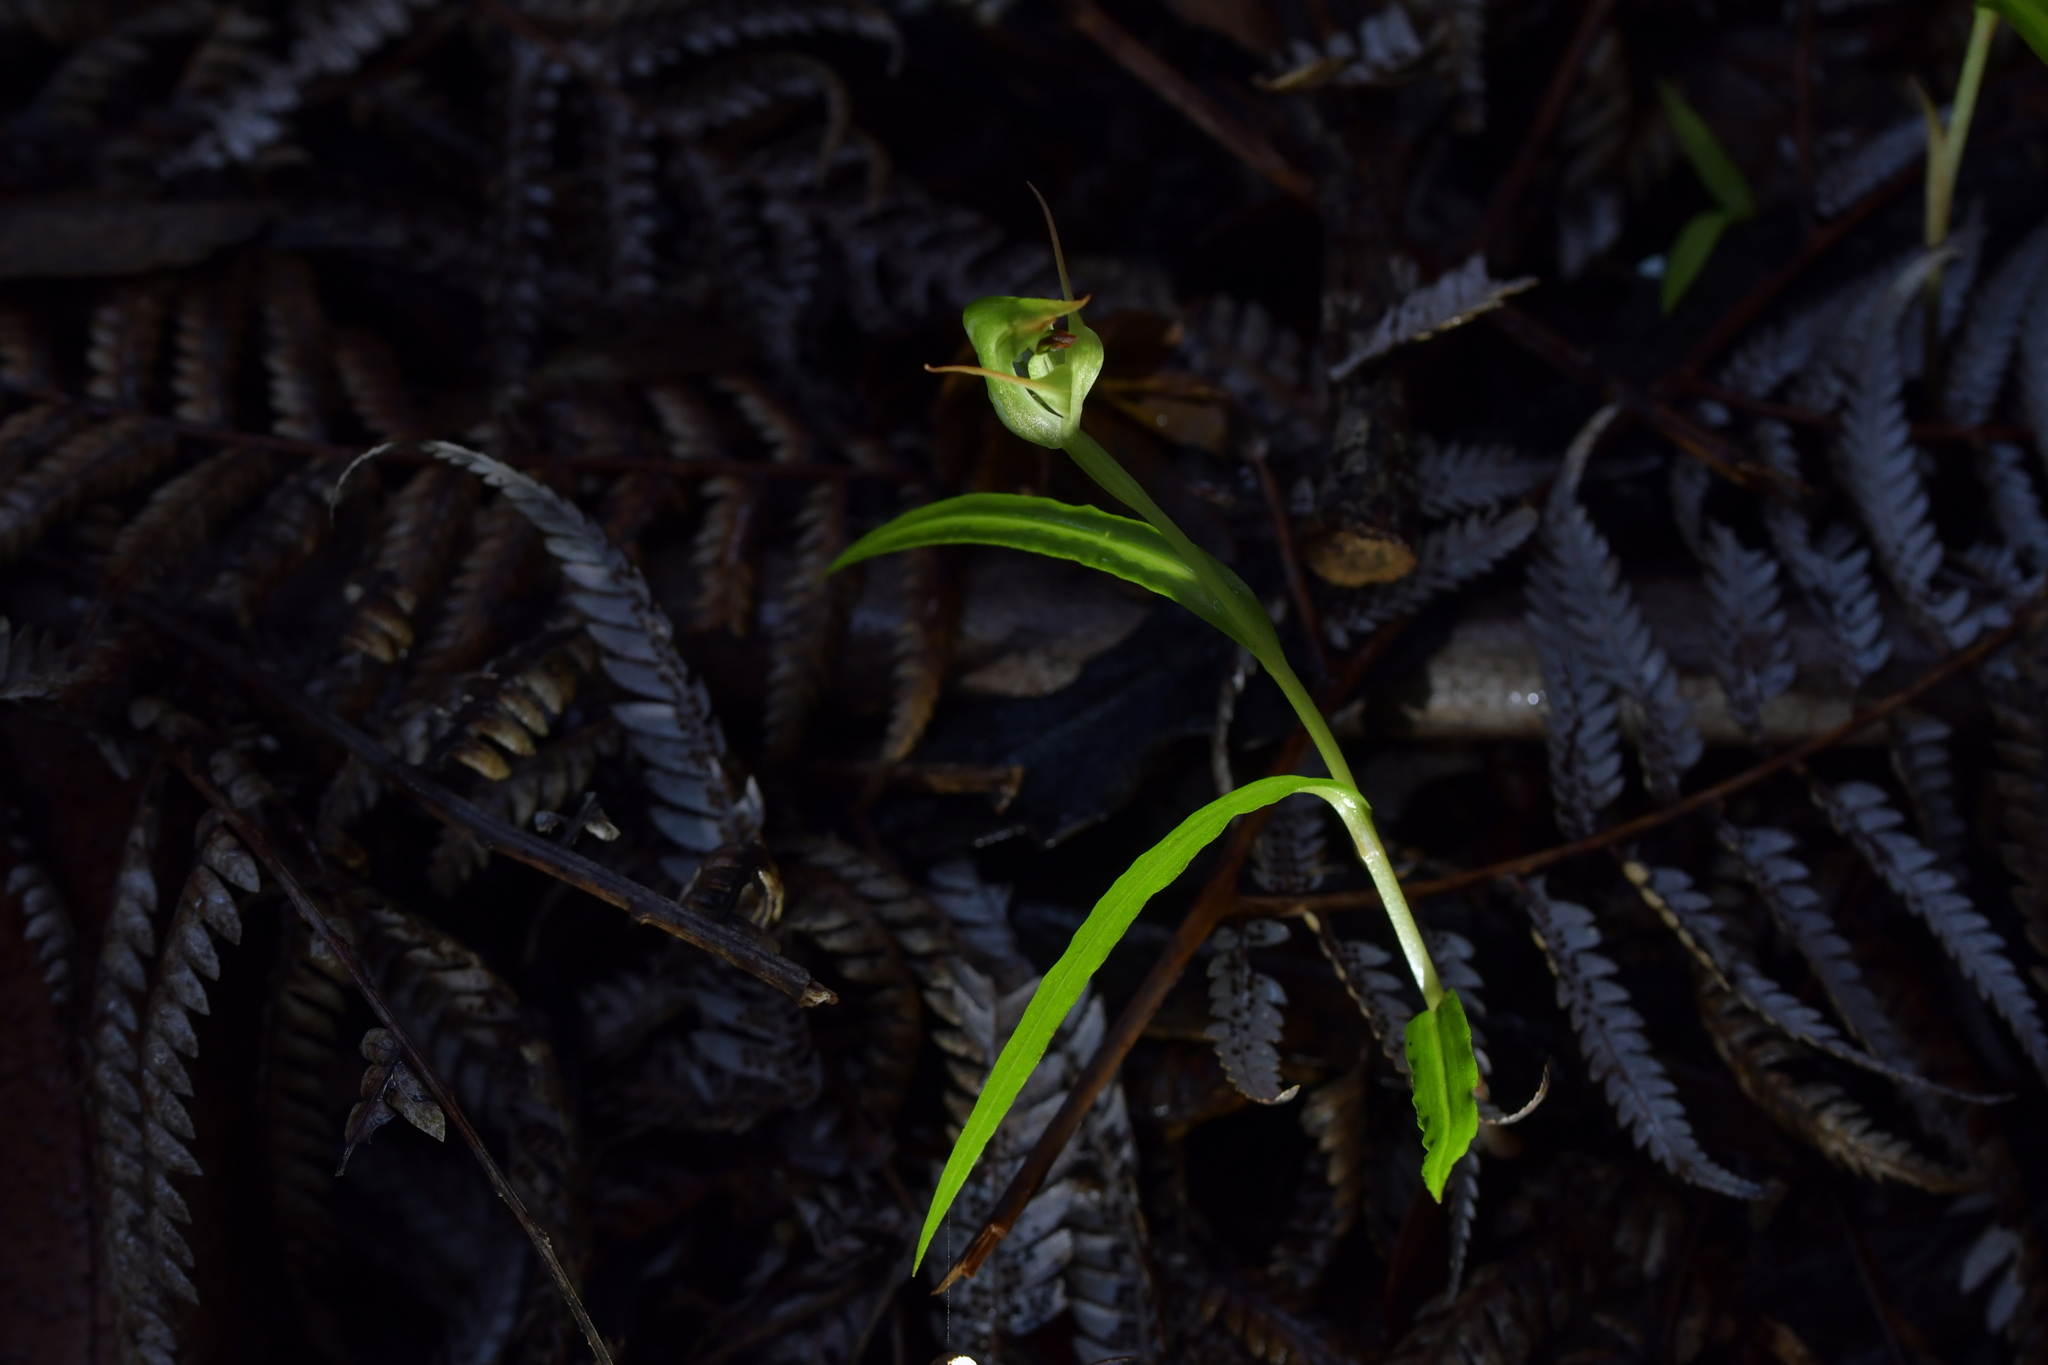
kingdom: Plantae
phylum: Tracheophyta
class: Liliopsida
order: Asparagales
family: Orchidaceae
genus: Pterostylis
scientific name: Pterostylis agathicola
